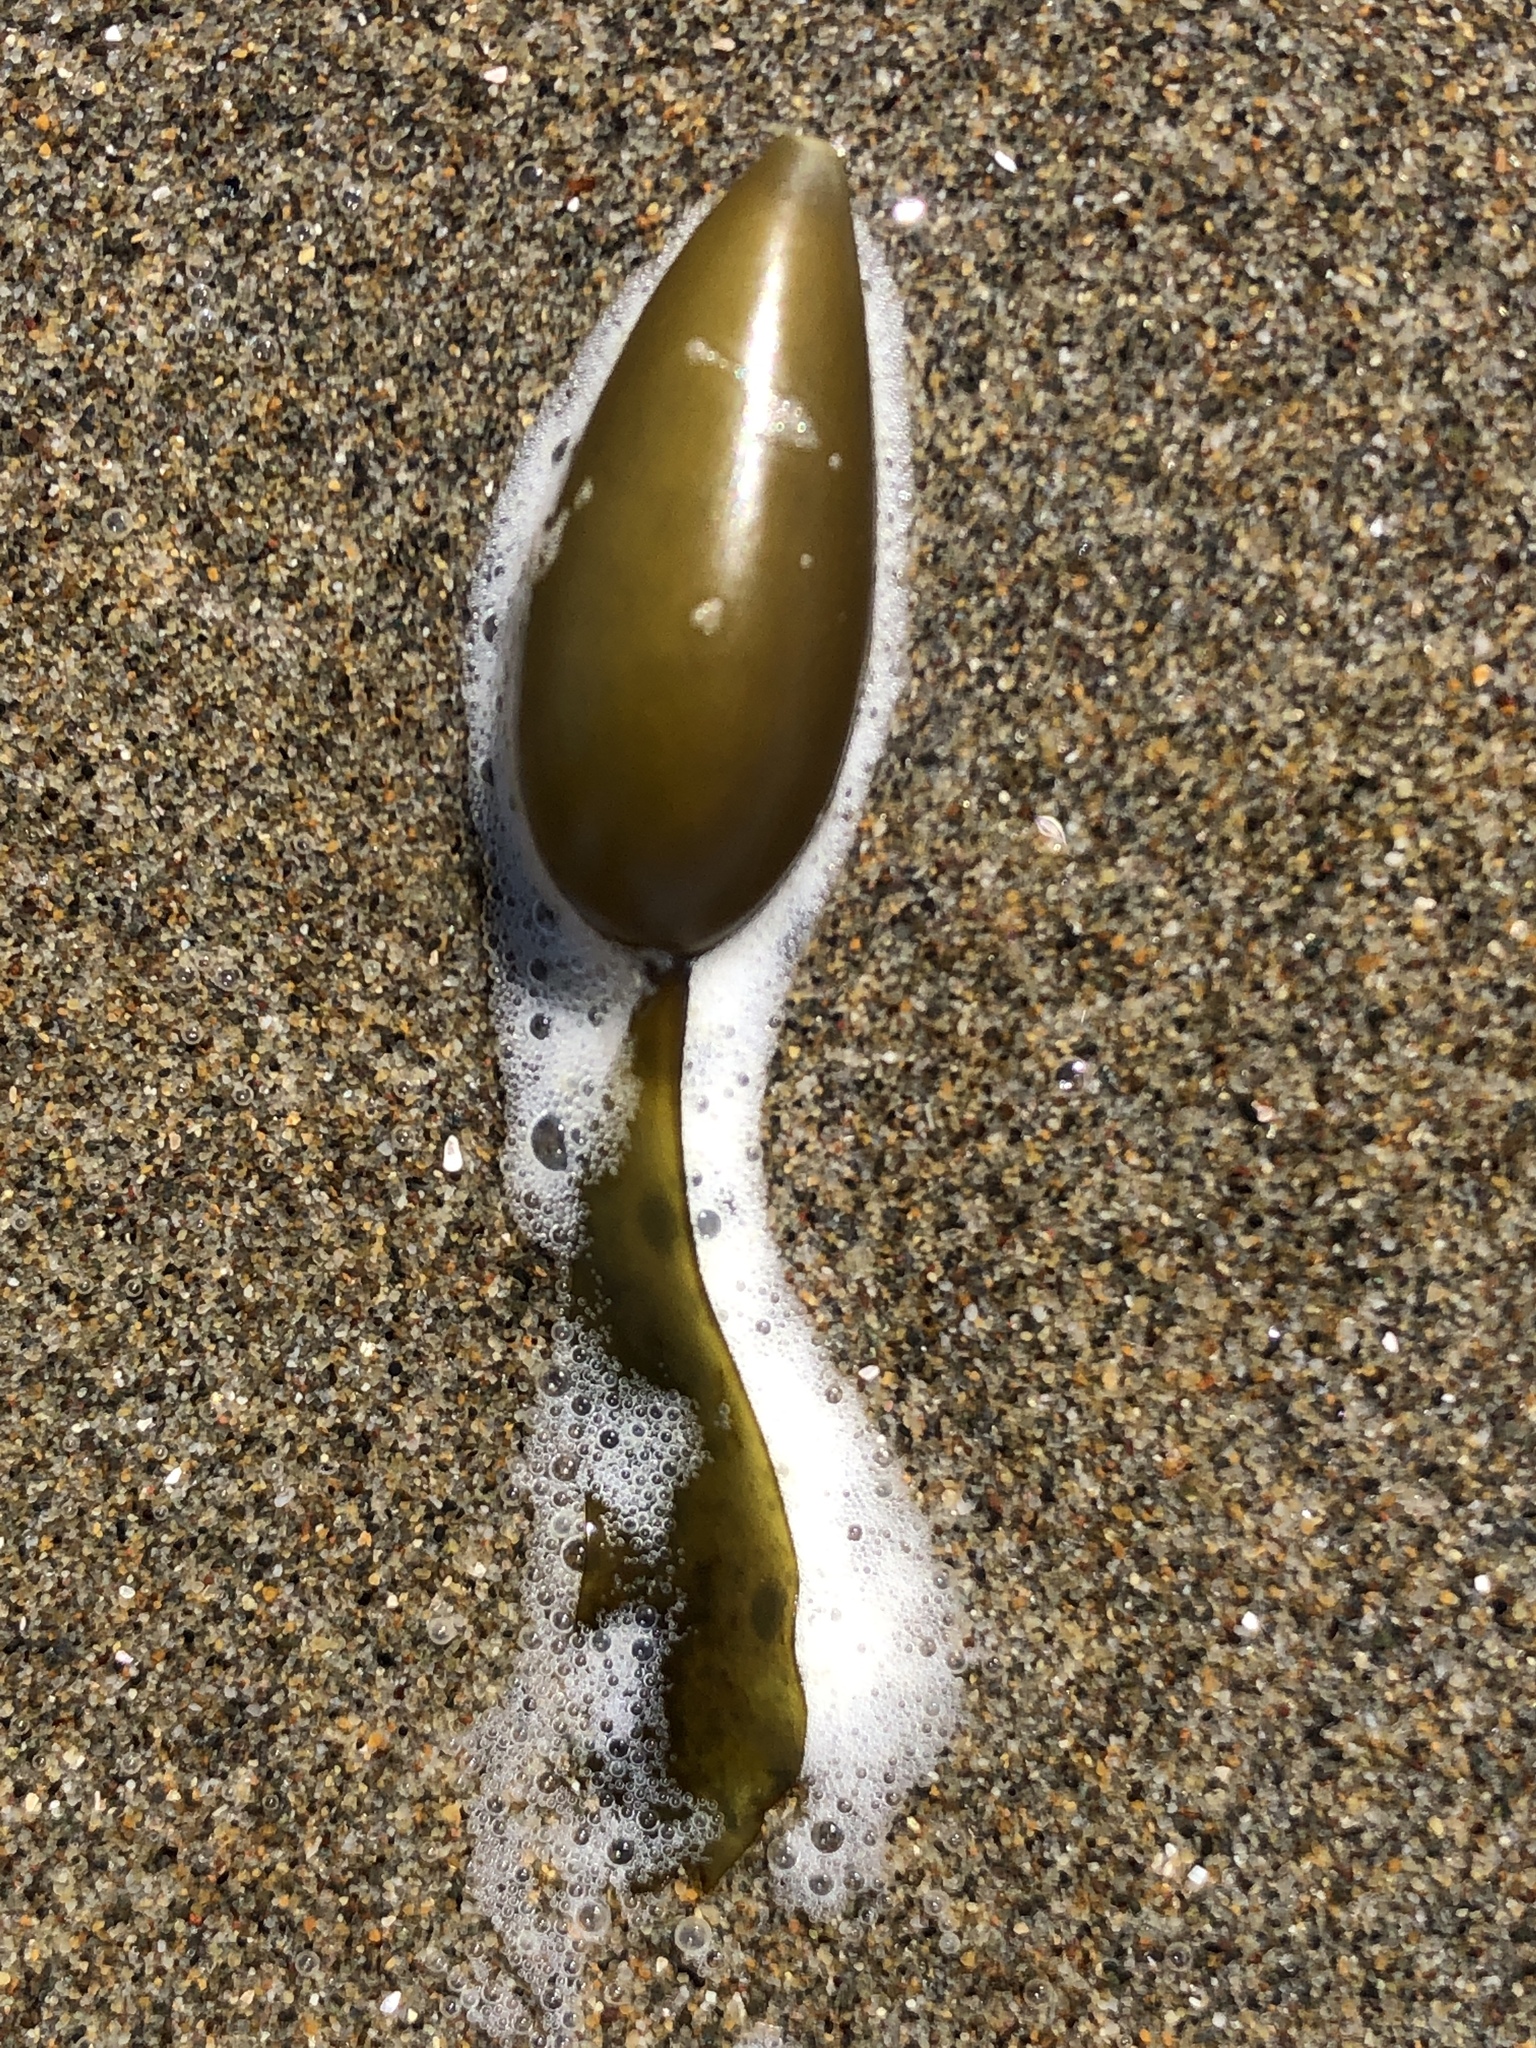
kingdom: Chromista
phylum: Ochrophyta
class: Phaeophyceae
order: Laminariales
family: Lessoniaceae
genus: Egregia
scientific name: Egregia menziesii
